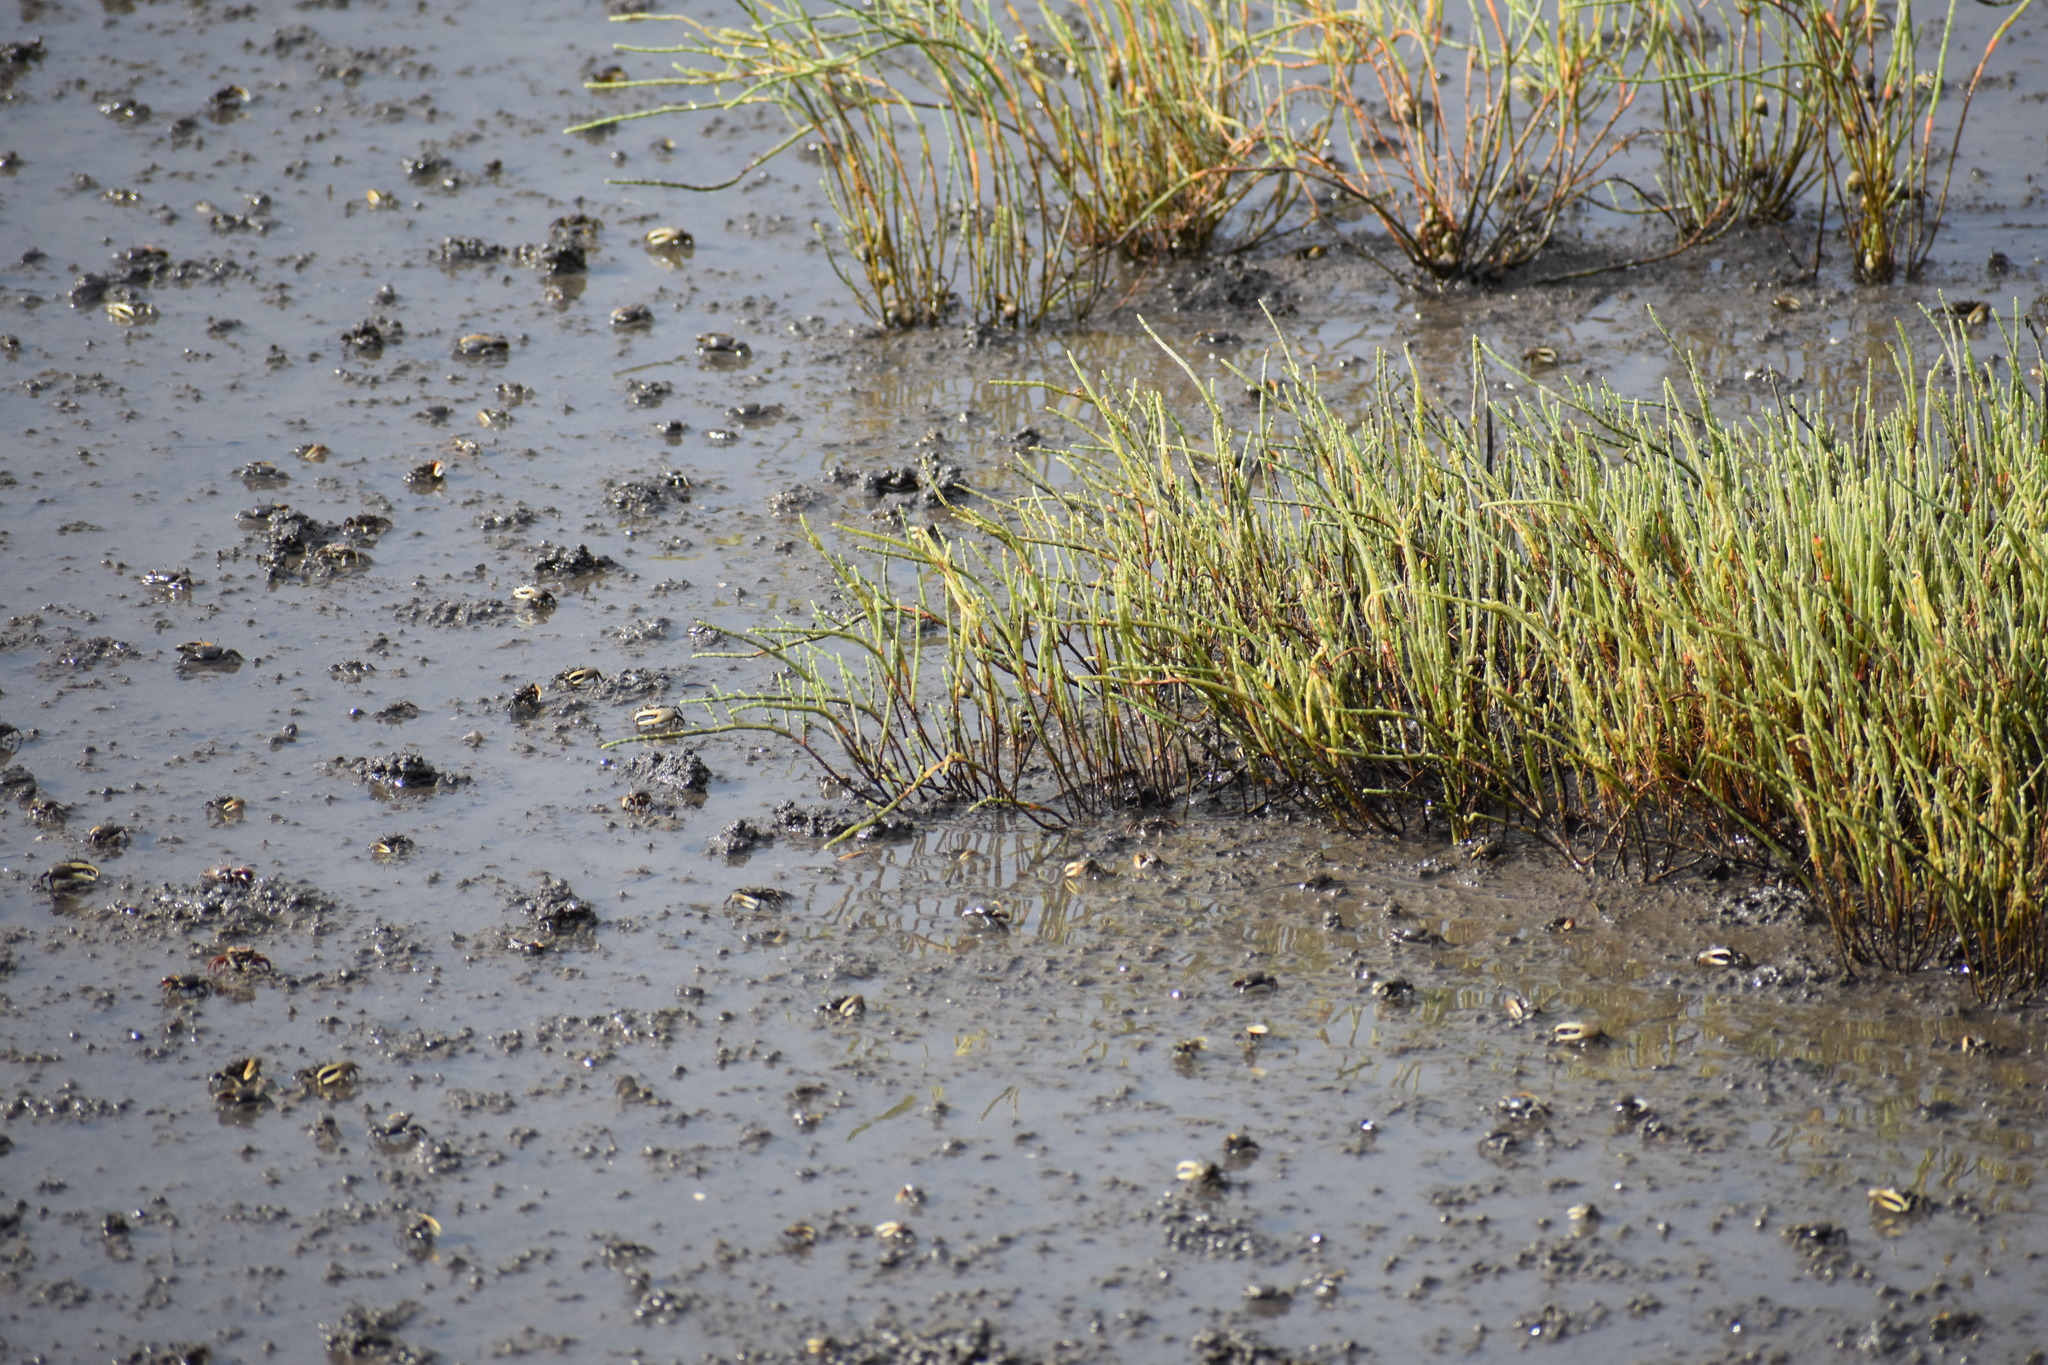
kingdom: Animalia
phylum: Arthropoda
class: Malacostraca
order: Decapoda
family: Ocypodidae
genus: Leptuca
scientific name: Leptuca pugilator
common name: Atlantic sand fiddler crab
